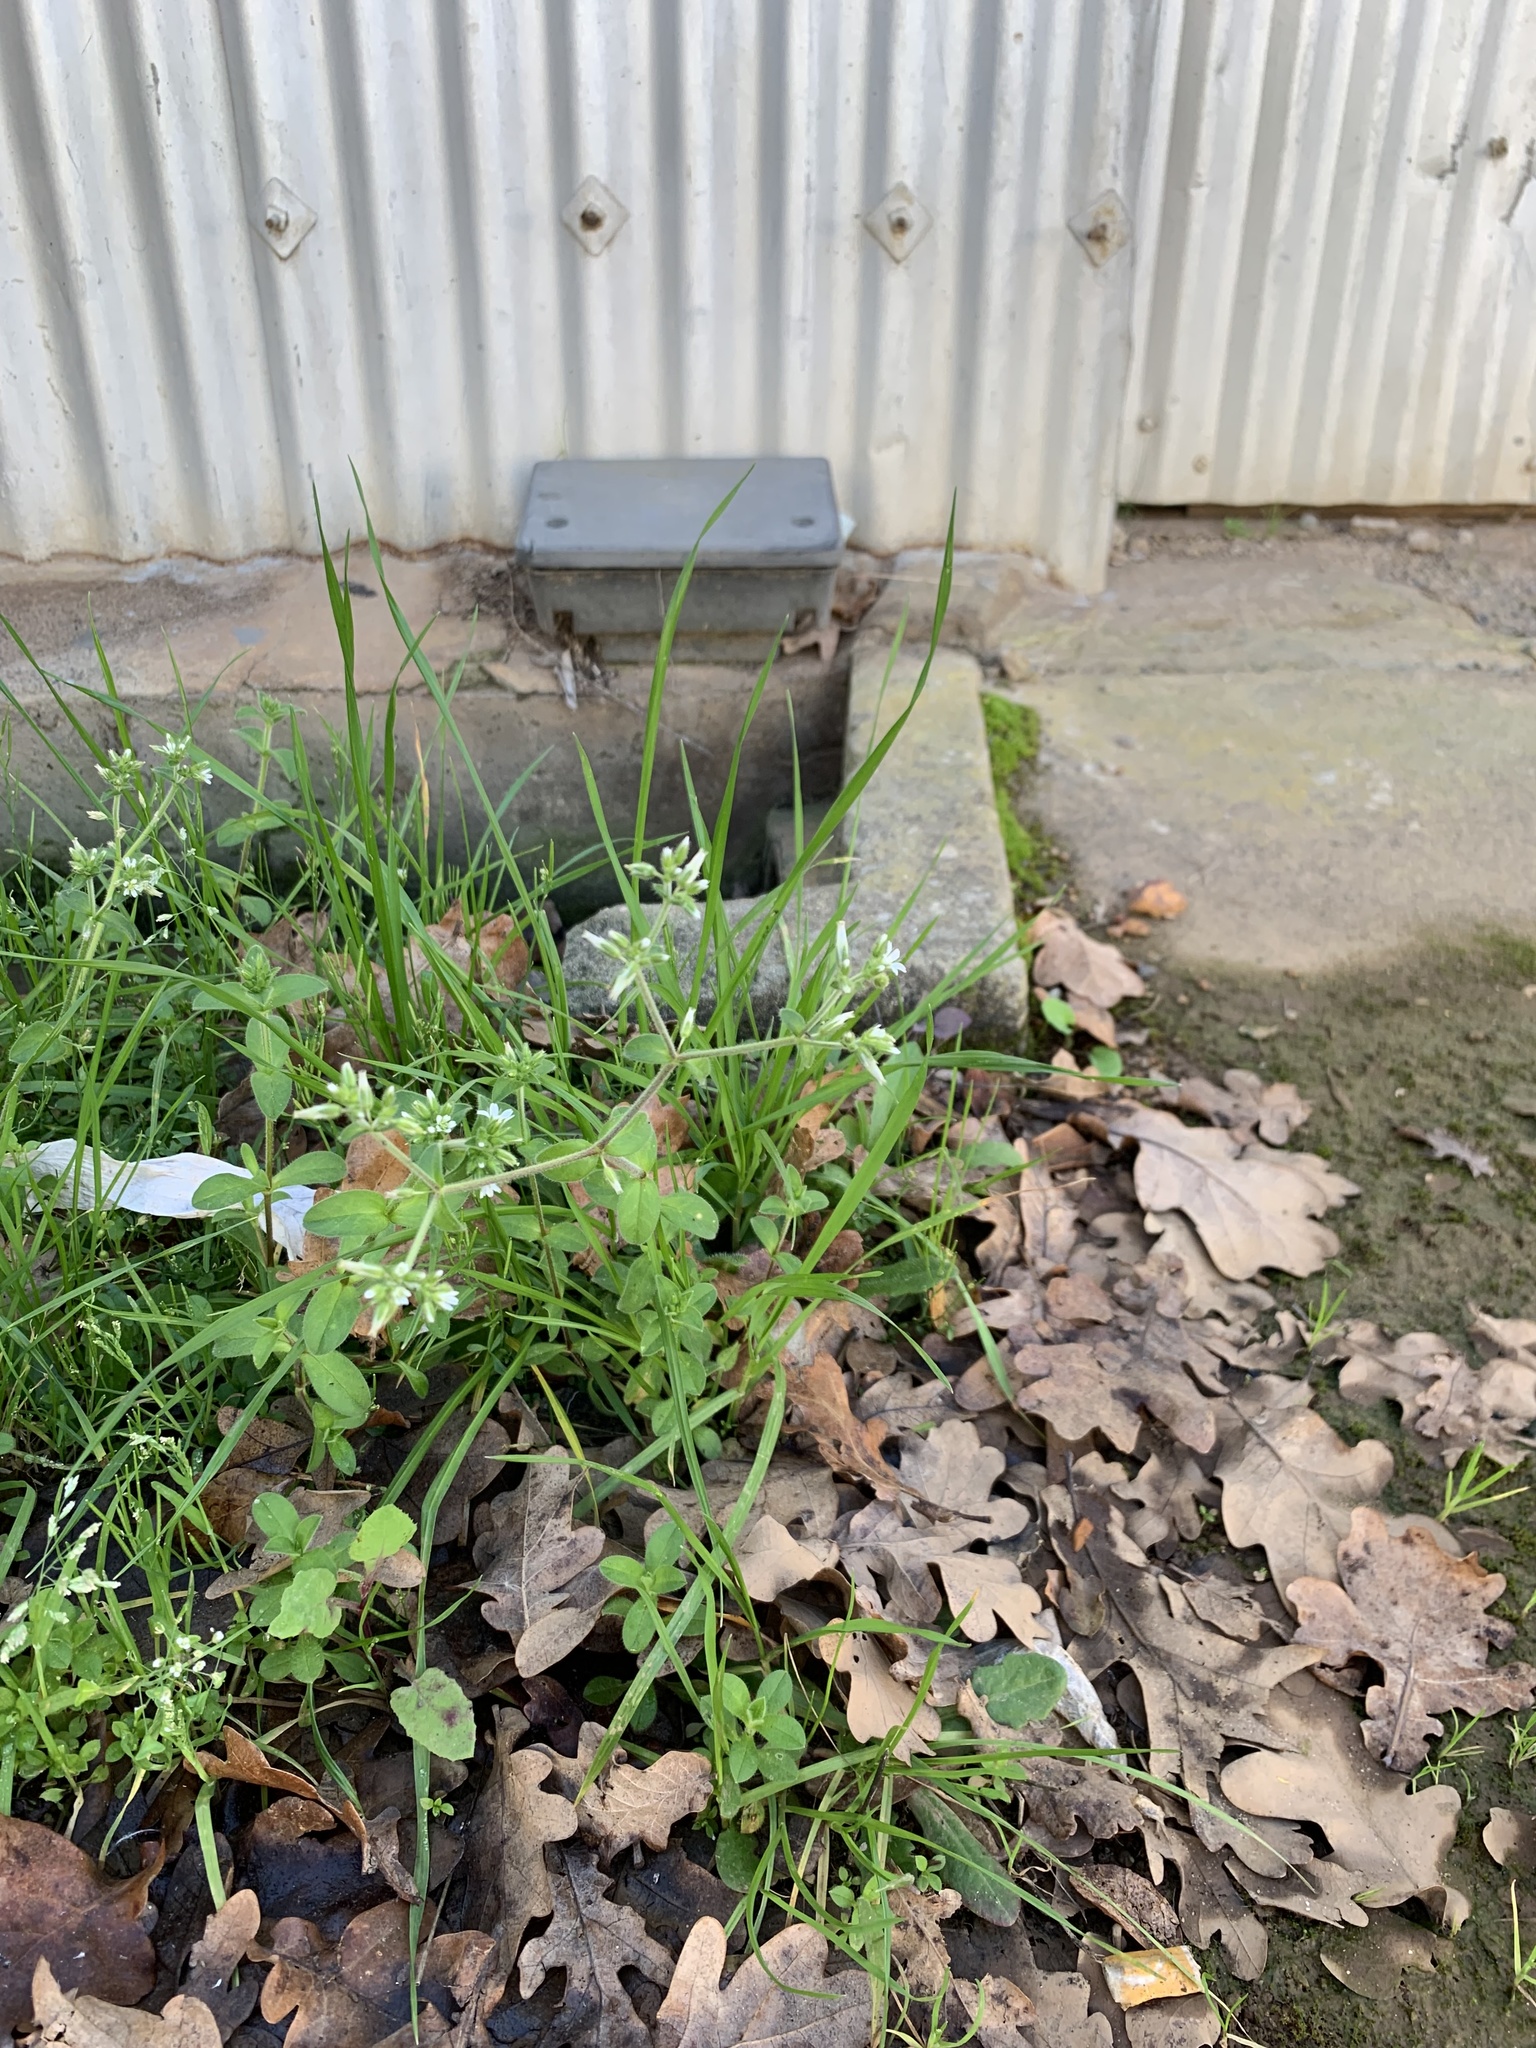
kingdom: Plantae
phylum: Tracheophyta
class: Magnoliopsida
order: Caryophyllales
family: Caryophyllaceae
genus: Cerastium
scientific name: Cerastium glomeratum
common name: Sticky chickweed
